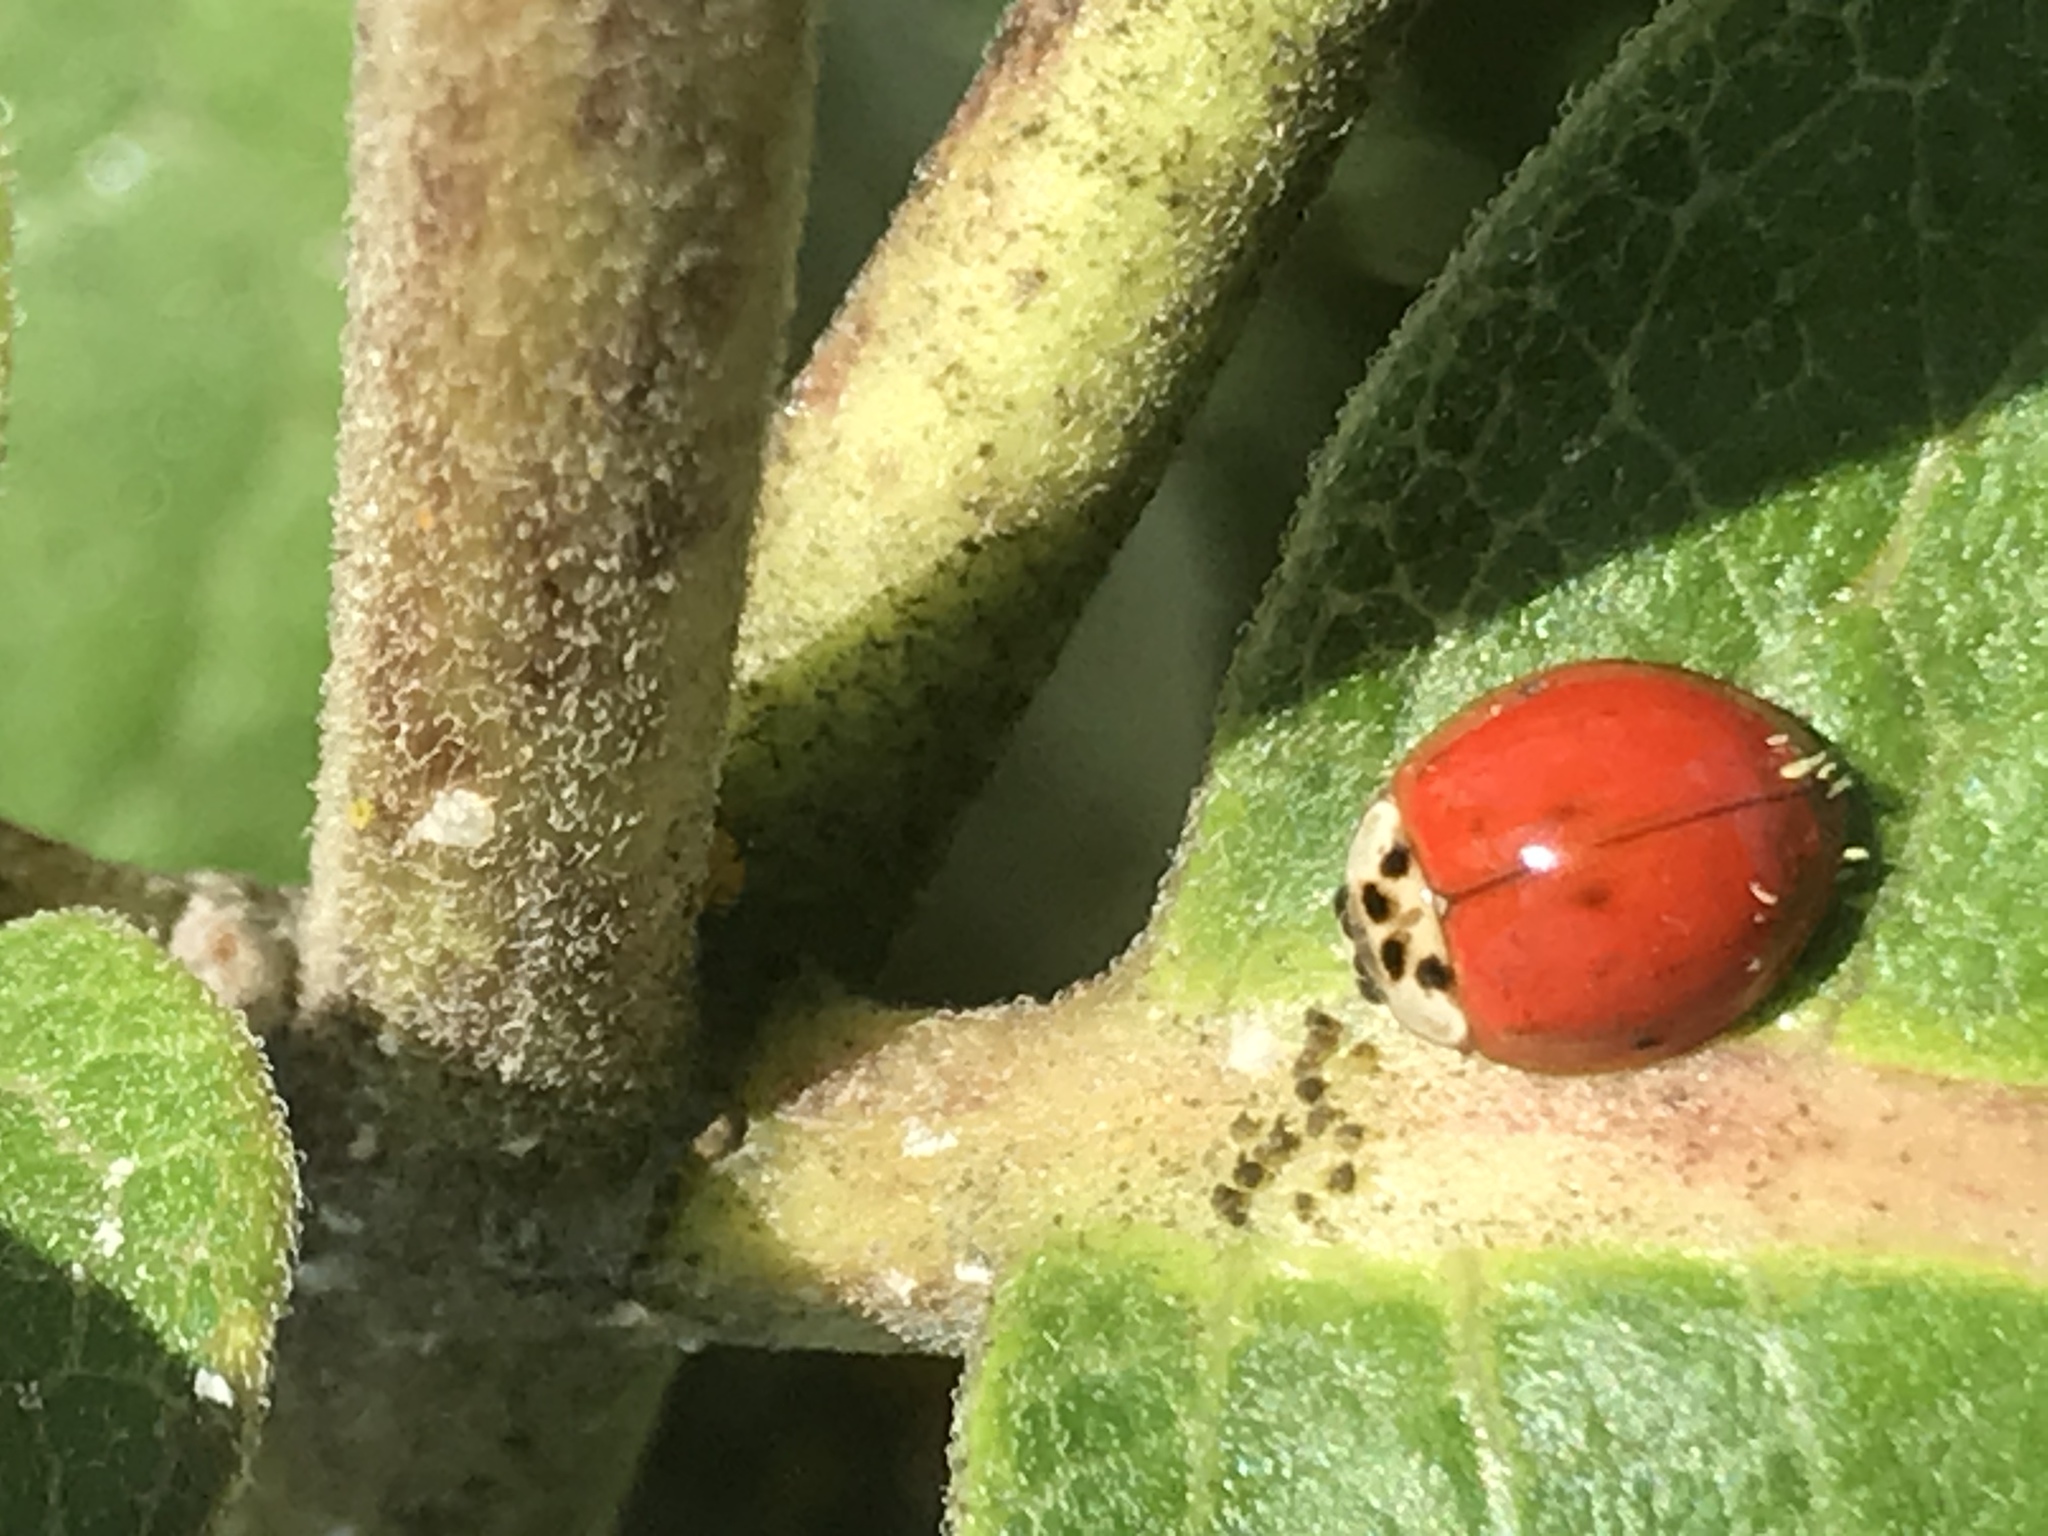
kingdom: Animalia
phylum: Arthropoda
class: Insecta
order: Coleoptera
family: Coccinellidae
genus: Harmonia
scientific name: Harmonia axyridis
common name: Harlequin ladybird
